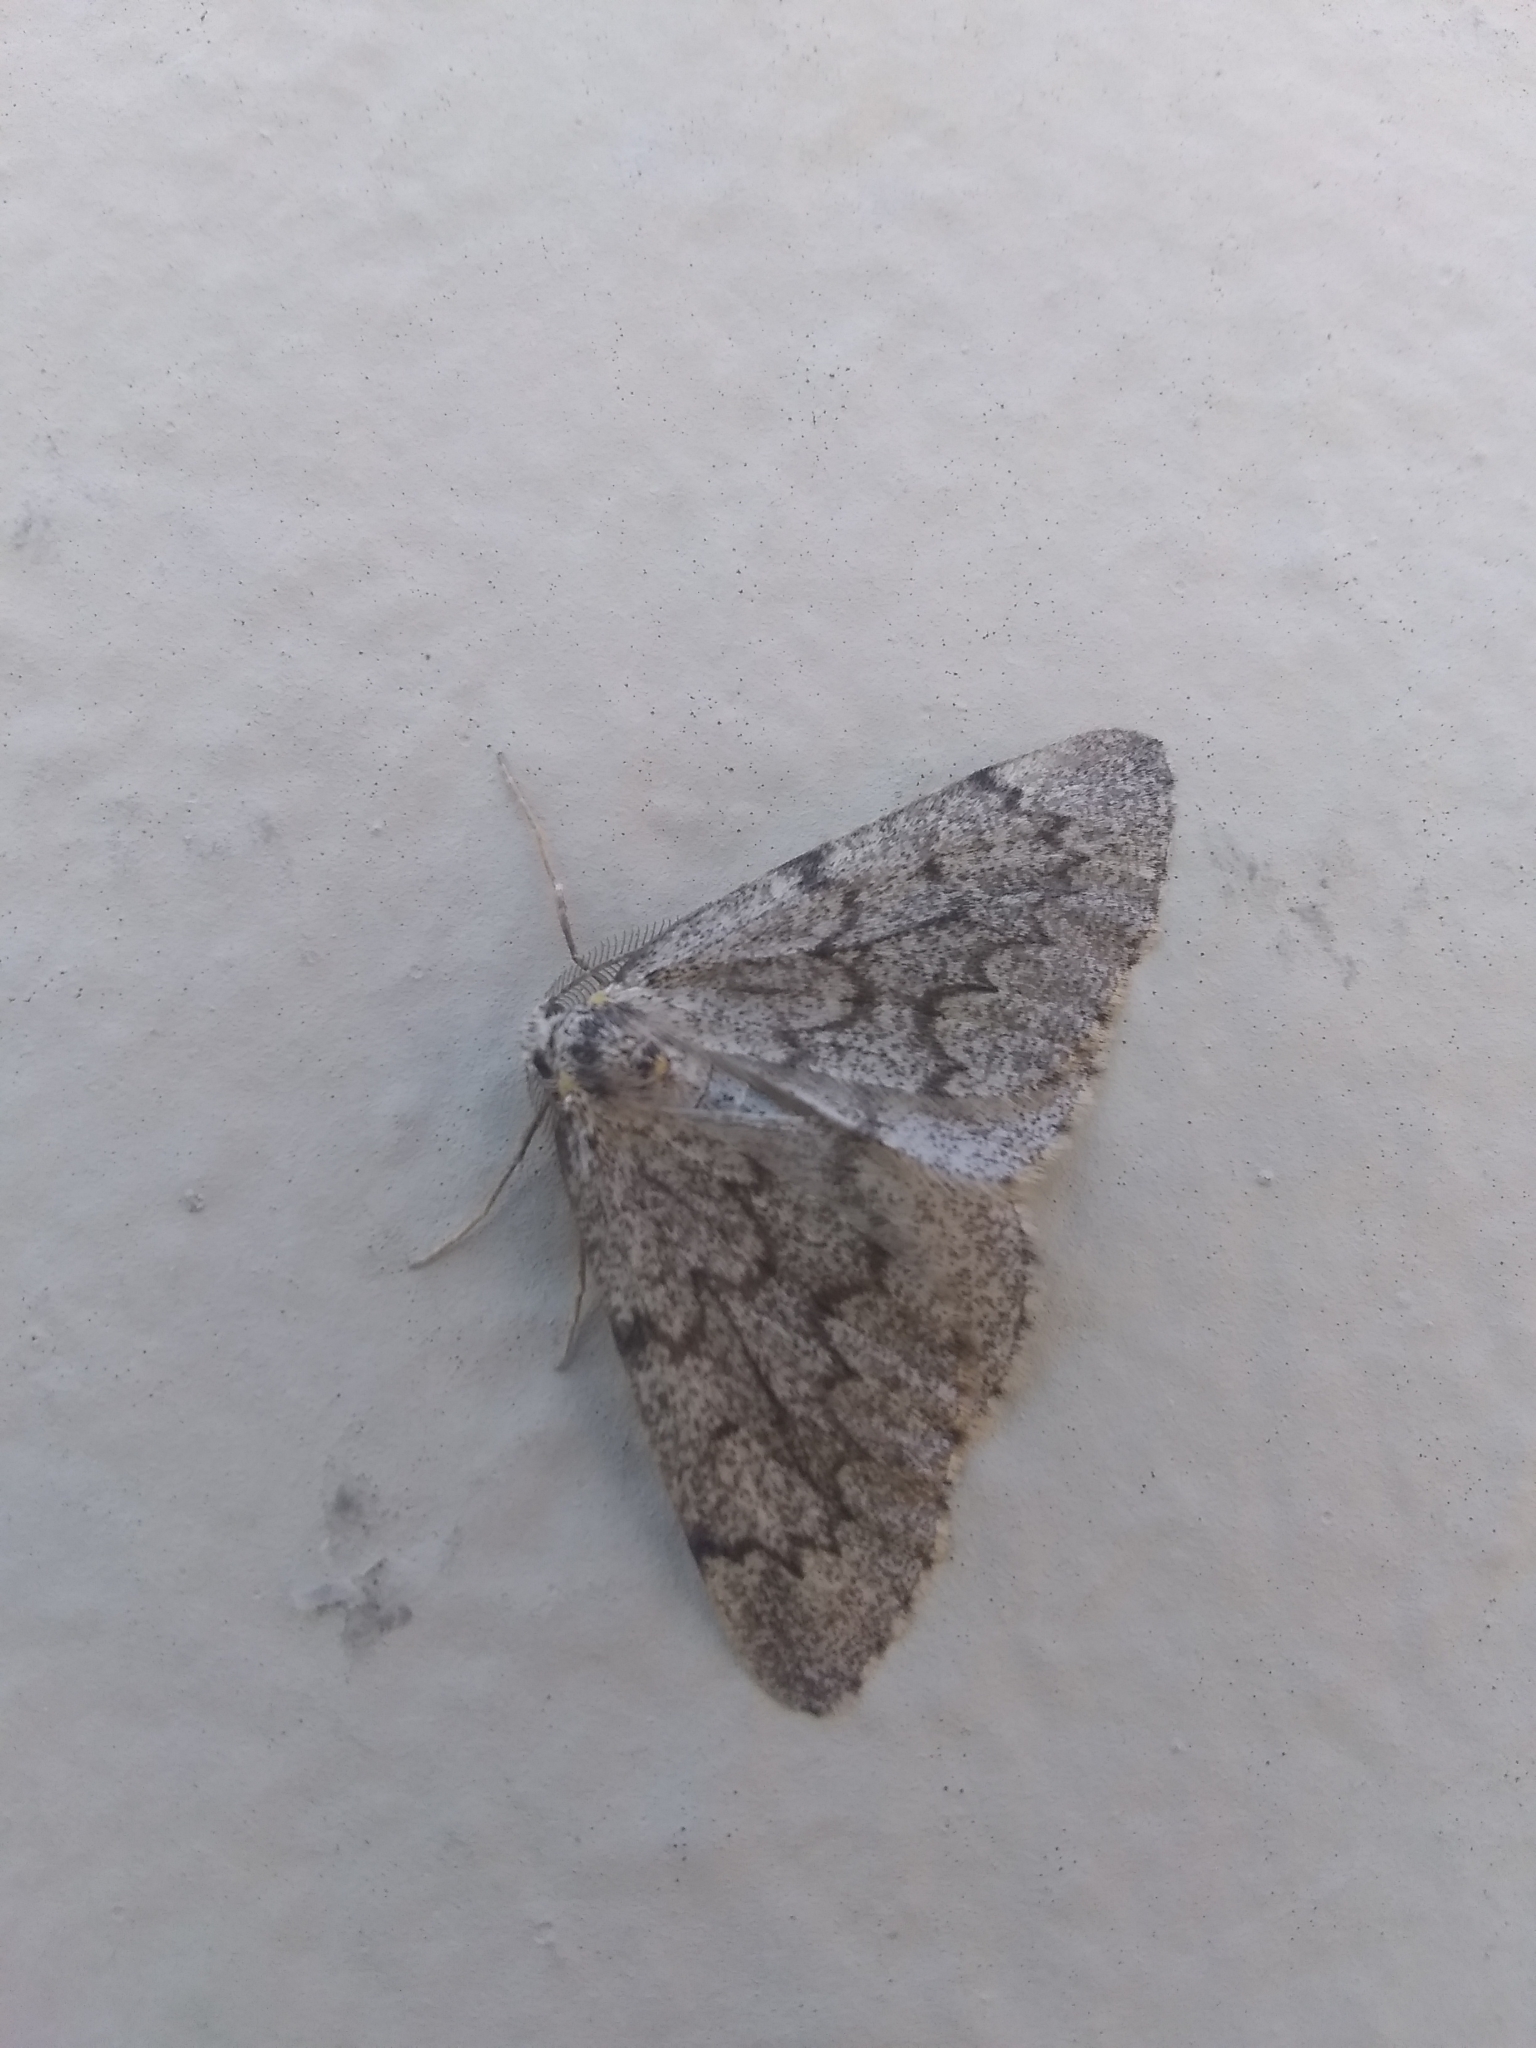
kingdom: Animalia
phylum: Arthropoda
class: Insecta
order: Lepidoptera
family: Geometridae
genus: Nepytia
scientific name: Nepytia freemani
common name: Western false hemlock looper
